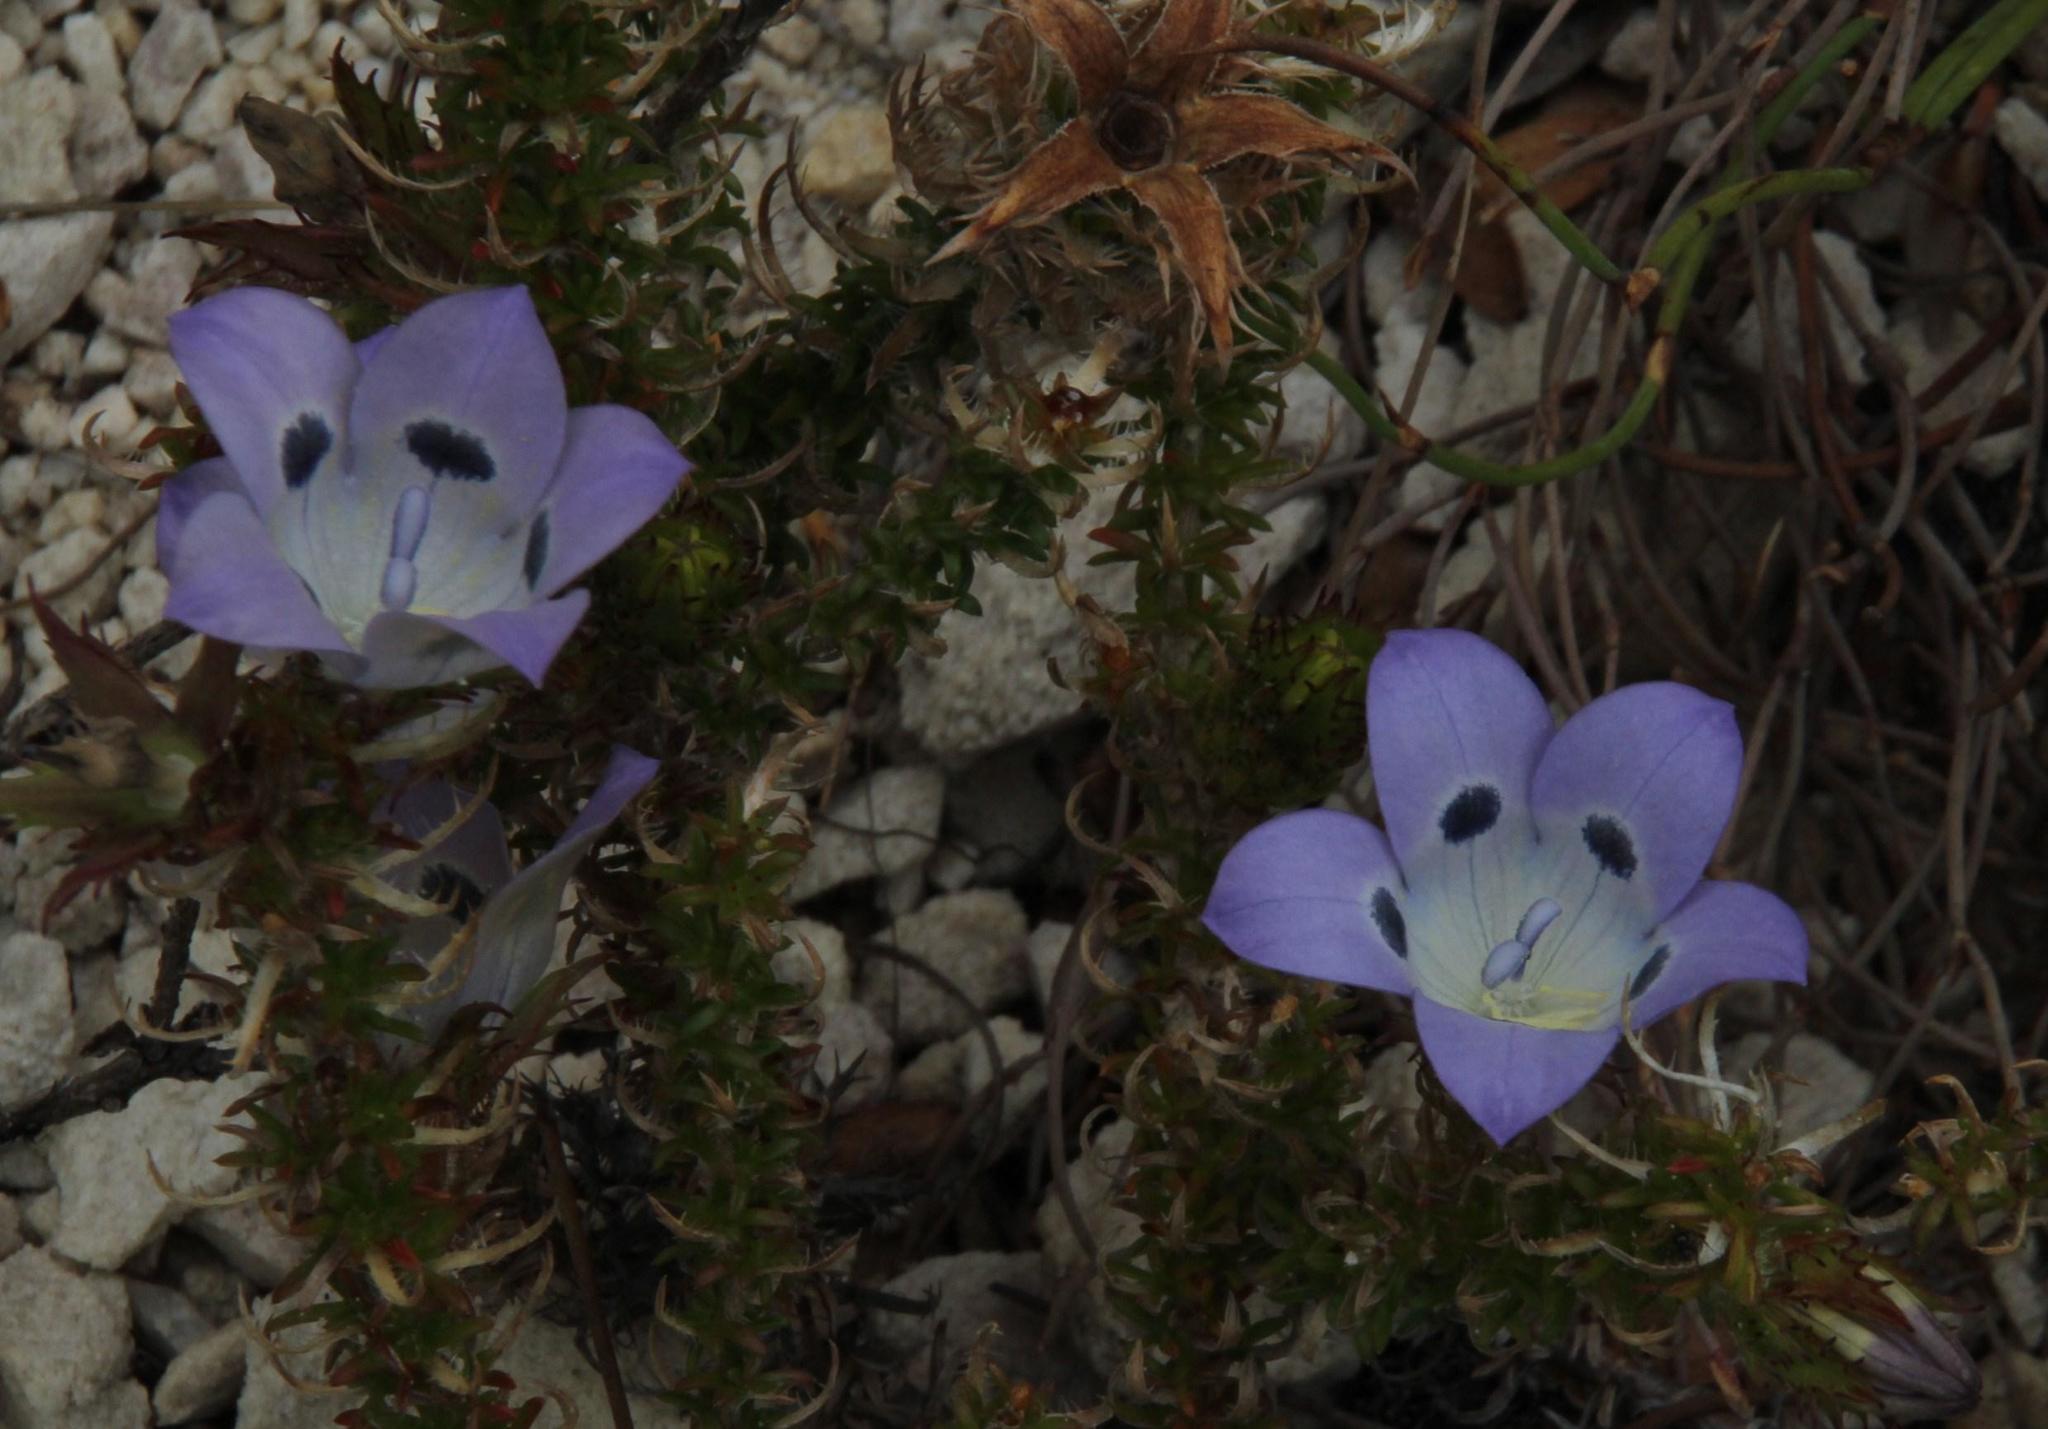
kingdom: Plantae
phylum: Tracheophyta
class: Magnoliopsida
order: Asterales
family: Campanulaceae
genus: Roella
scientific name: Roella incurva
